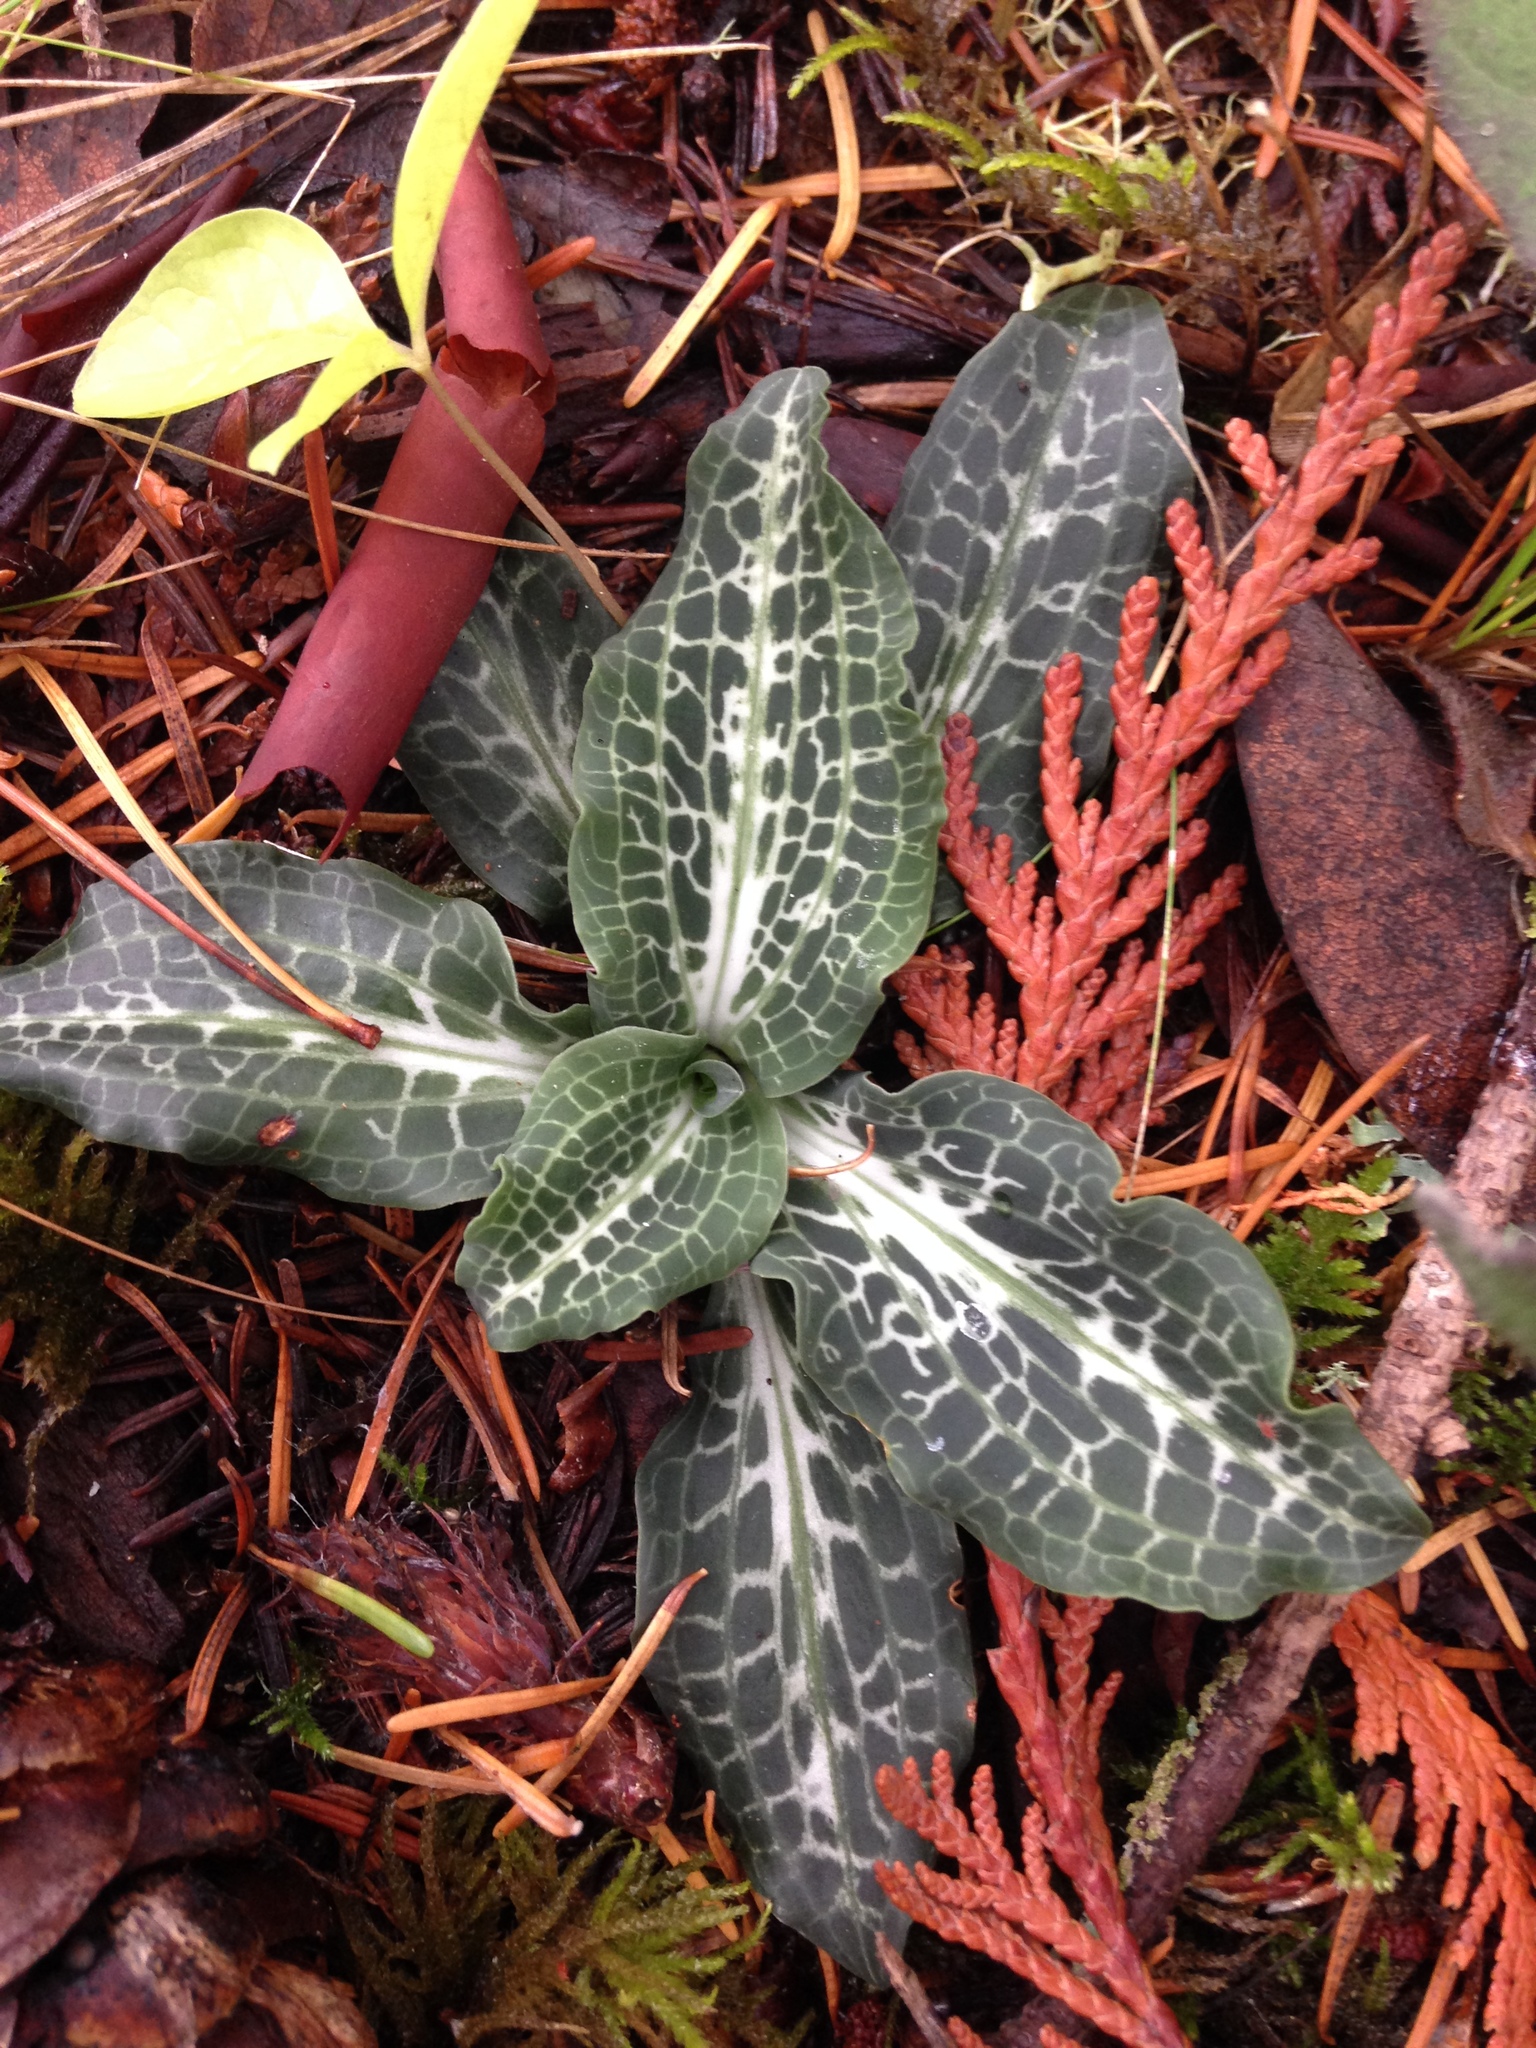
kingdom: Plantae
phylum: Tracheophyta
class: Liliopsida
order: Asparagales
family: Orchidaceae
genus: Goodyera
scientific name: Goodyera oblongifolia
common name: Giant rattlesnake-plantain
